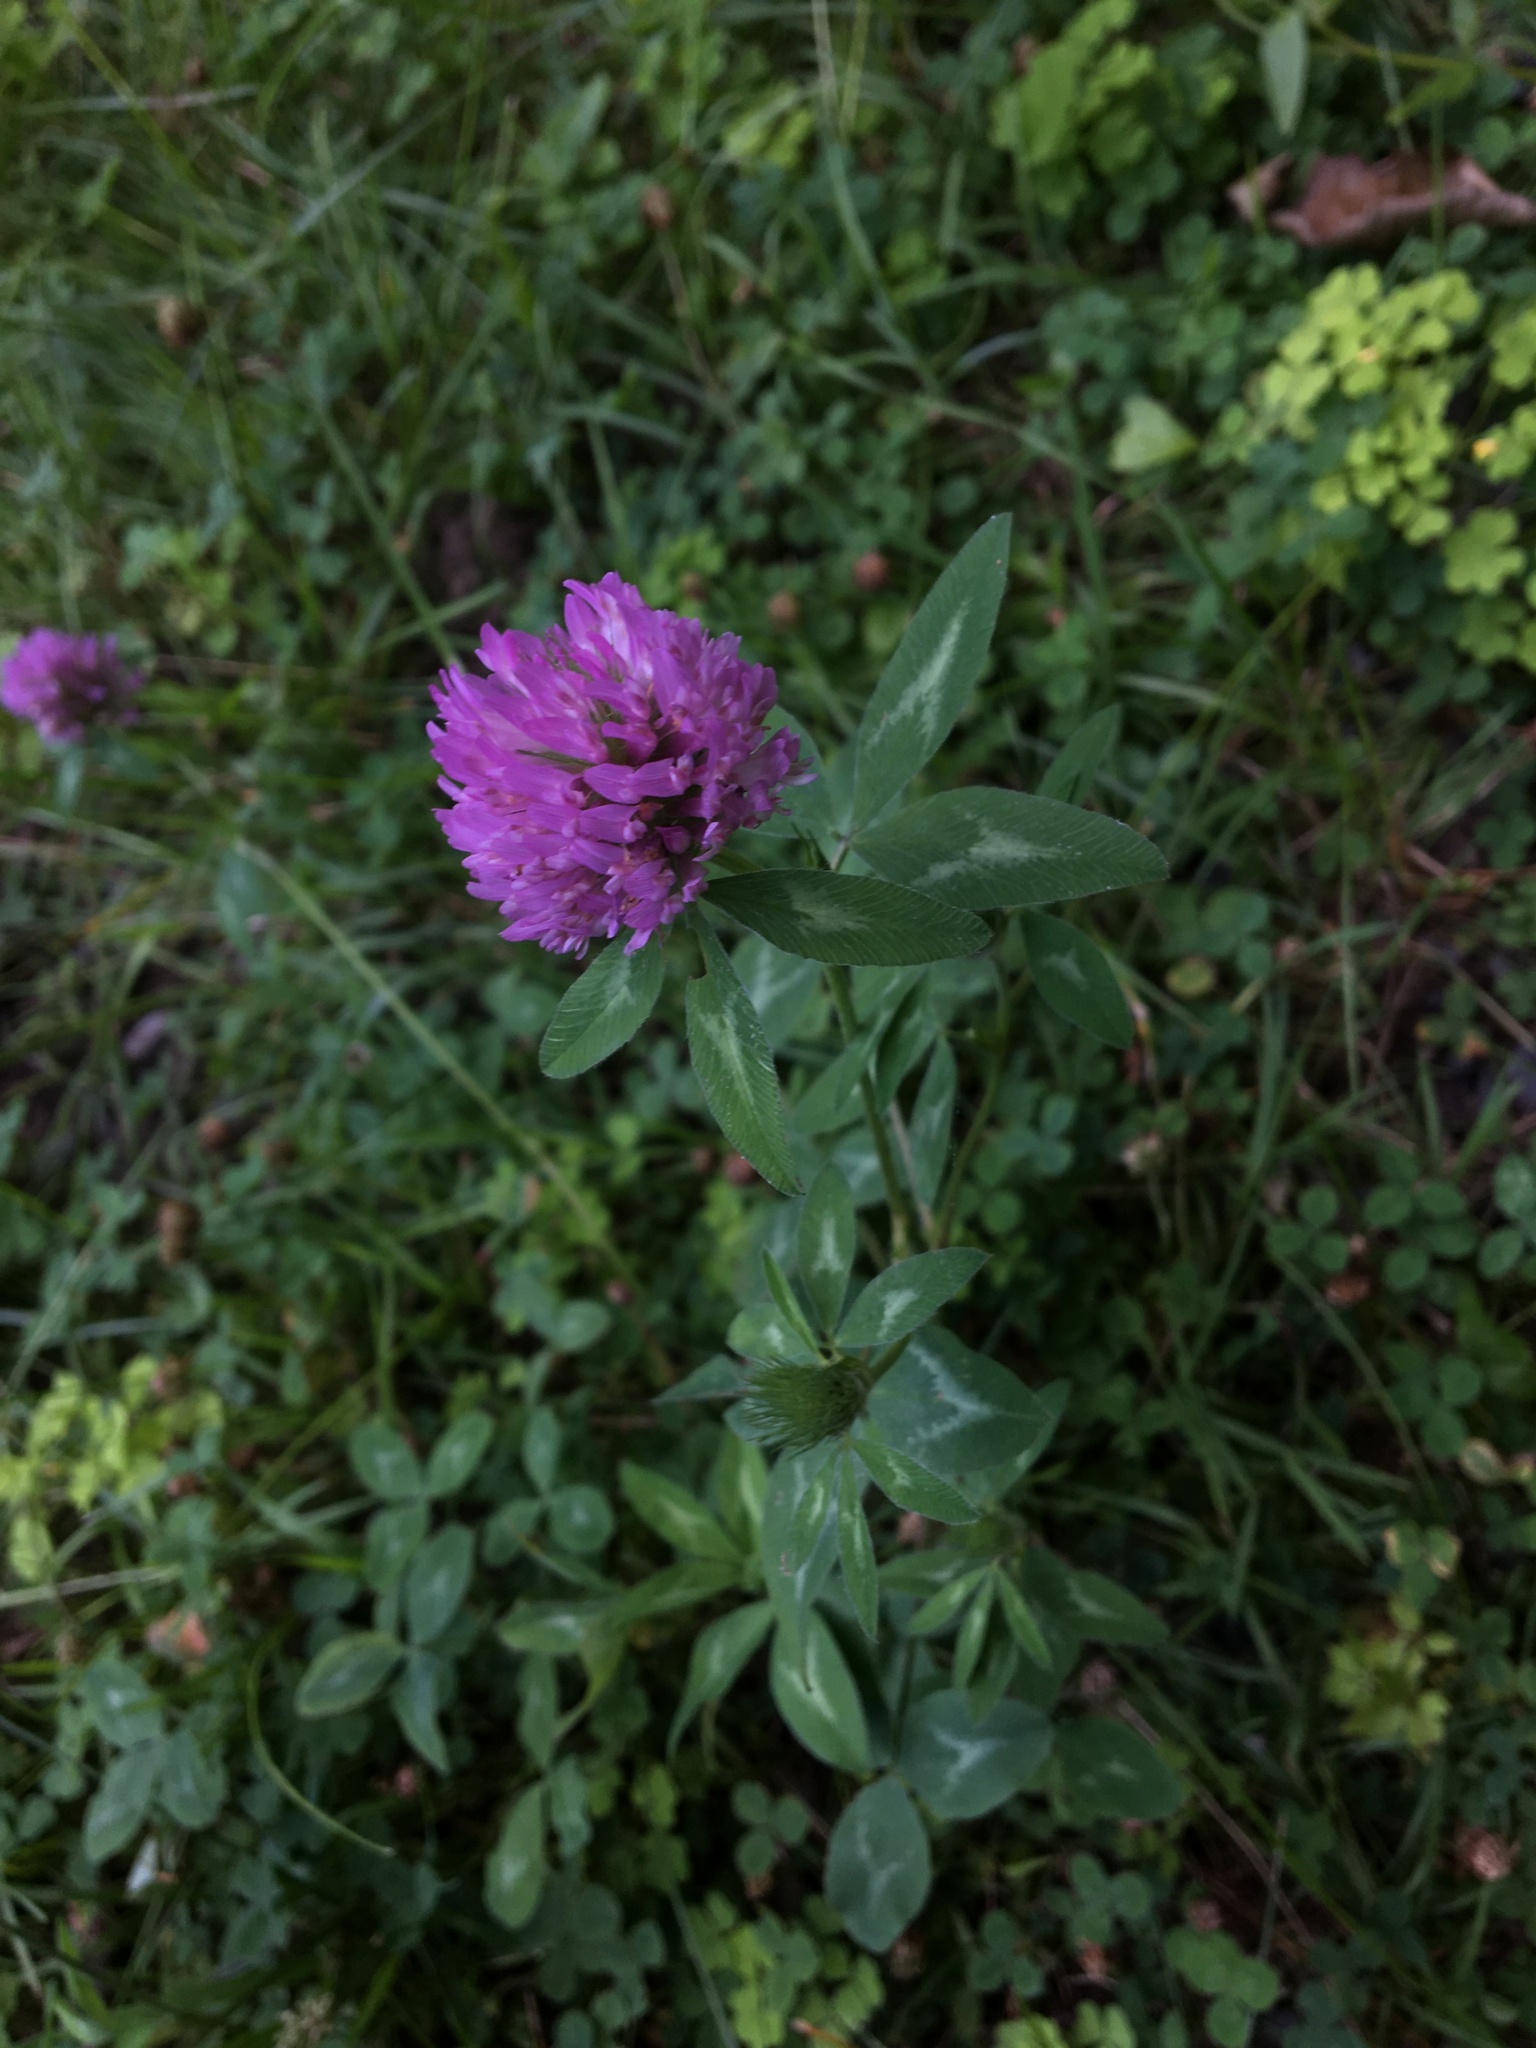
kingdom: Plantae
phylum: Tracheophyta
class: Magnoliopsida
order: Fabales
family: Fabaceae
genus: Trifolium
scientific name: Trifolium pratense
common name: Red clover
